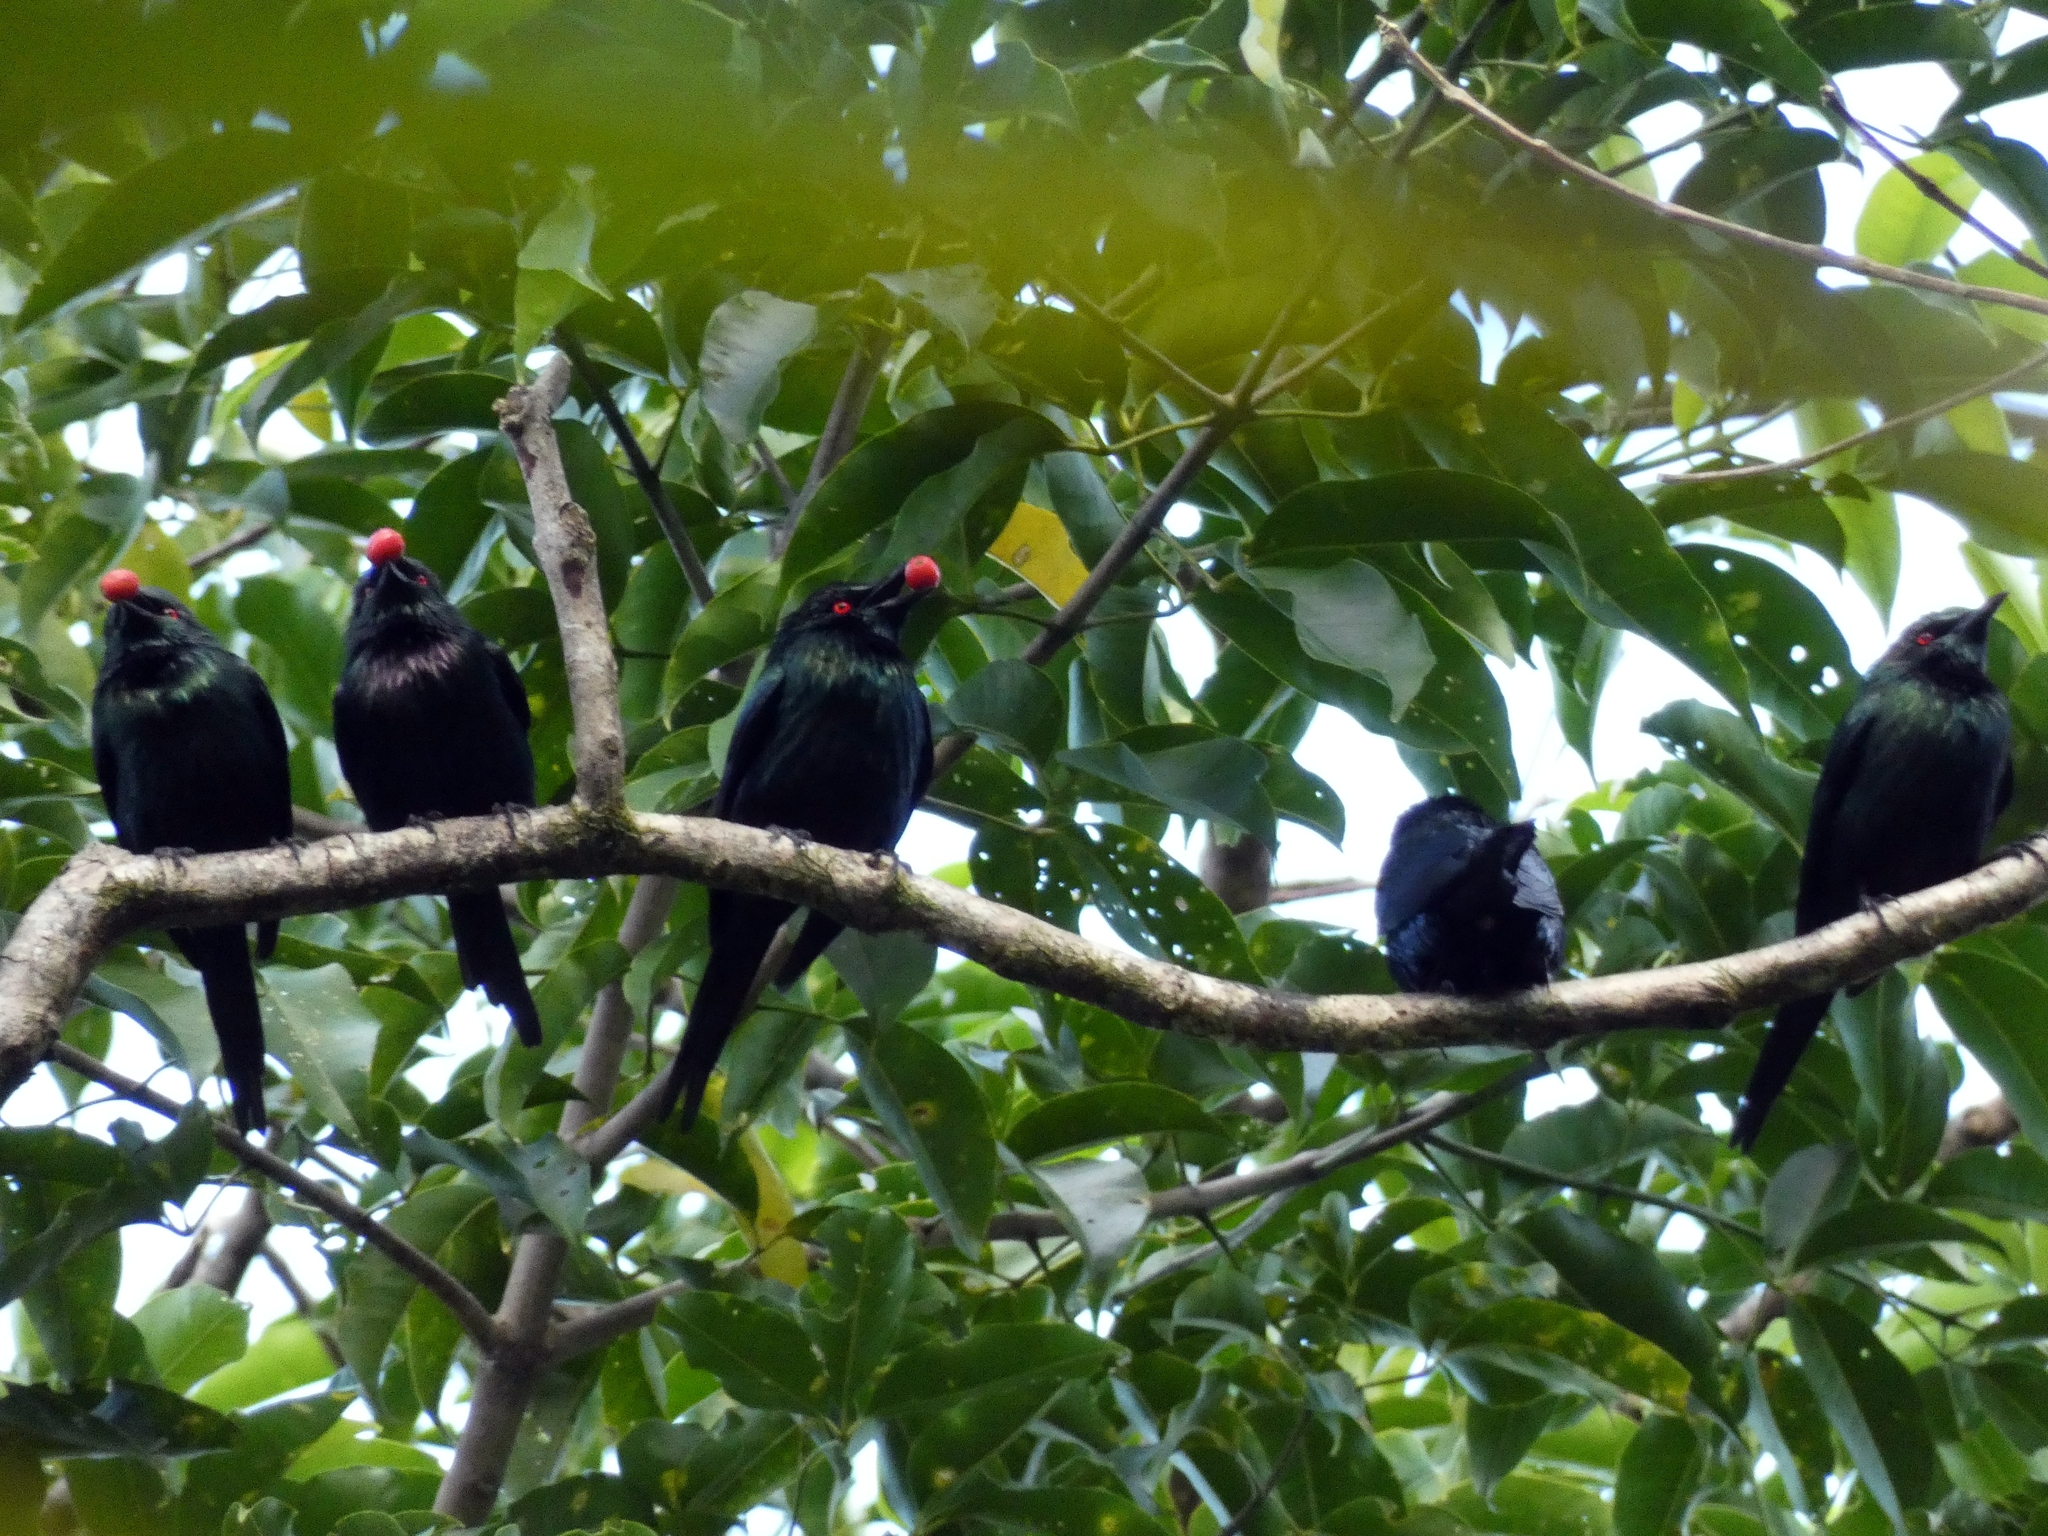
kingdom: Animalia
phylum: Chordata
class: Aves
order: Passeriformes
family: Sturnidae
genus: Aplonis
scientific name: Aplonis metallica
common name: Metallic starling
